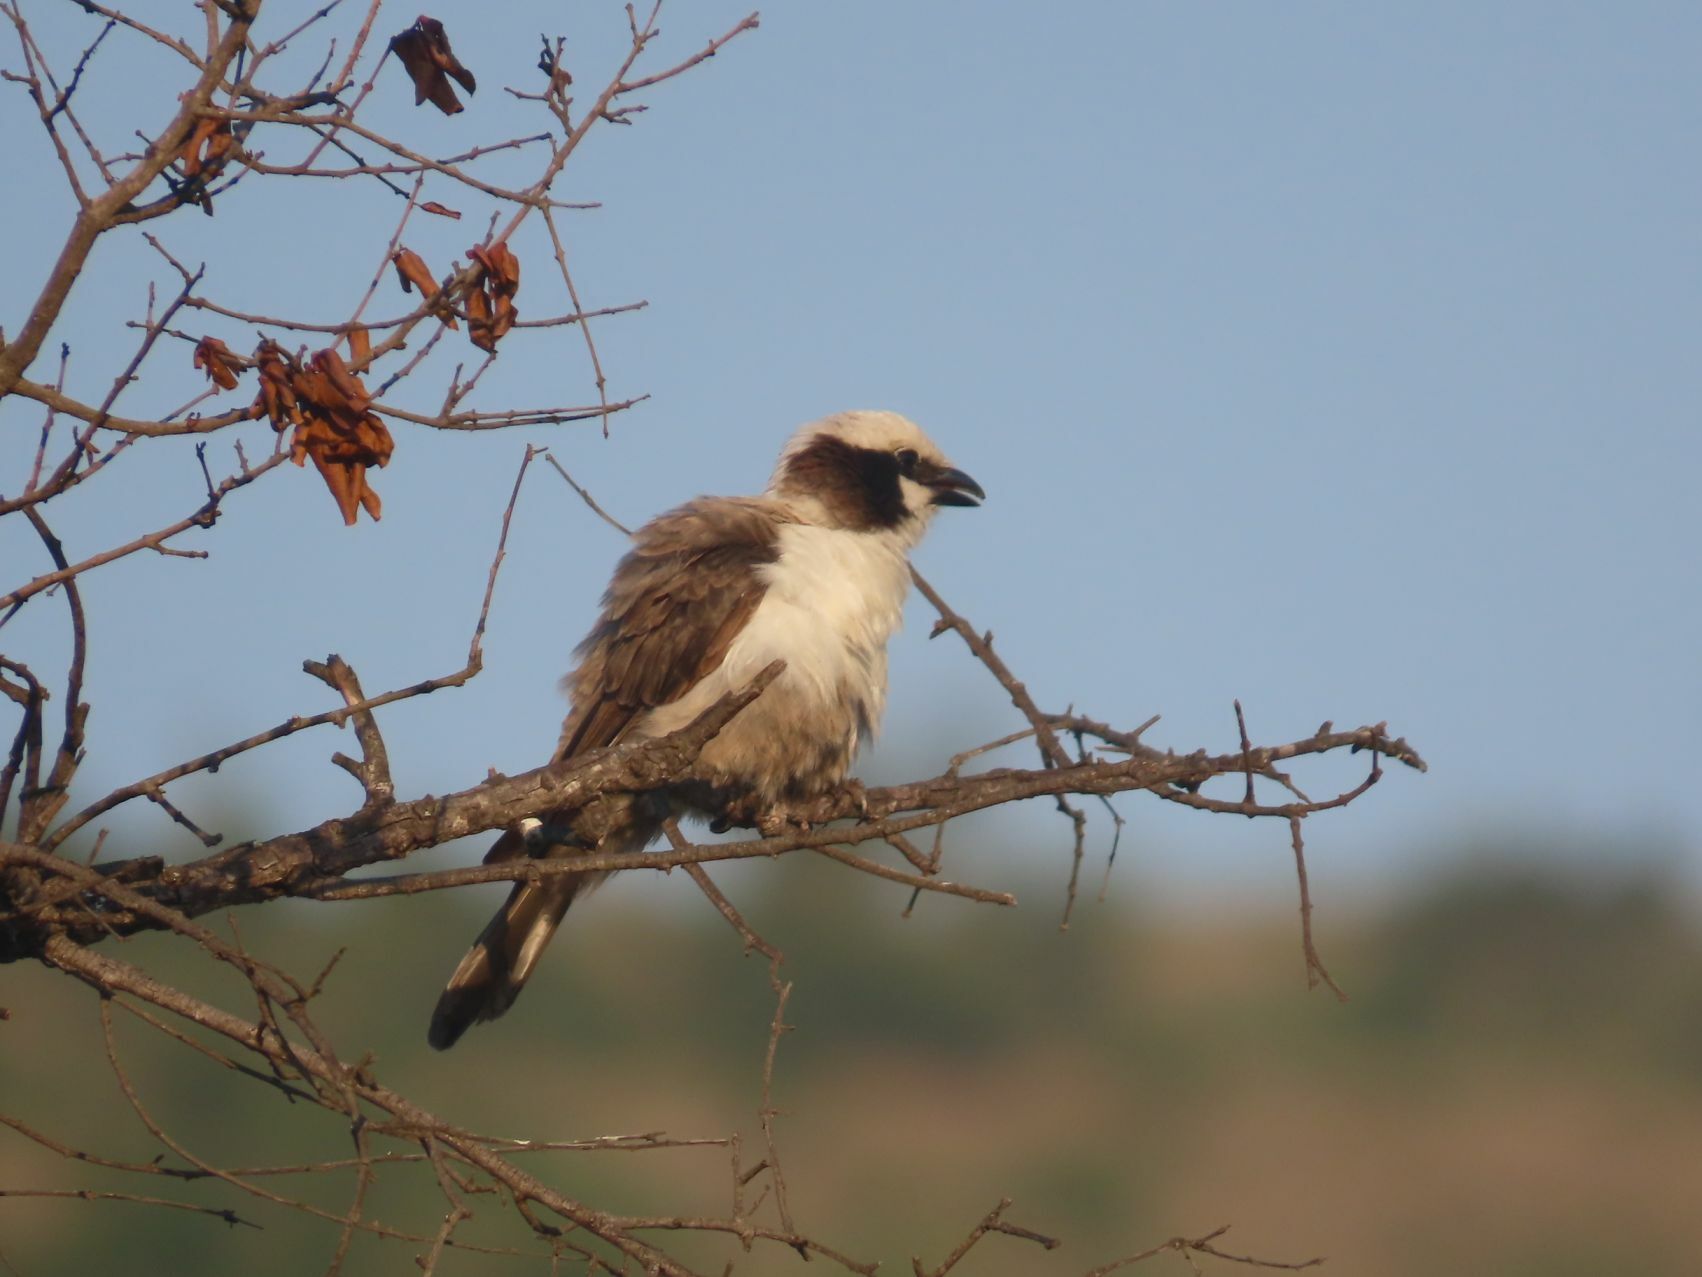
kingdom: Animalia
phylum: Chordata
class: Aves
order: Passeriformes
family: Laniidae
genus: Eurocephalus
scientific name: Eurocephalus anguitimens
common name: Southern white-crowned shrike
